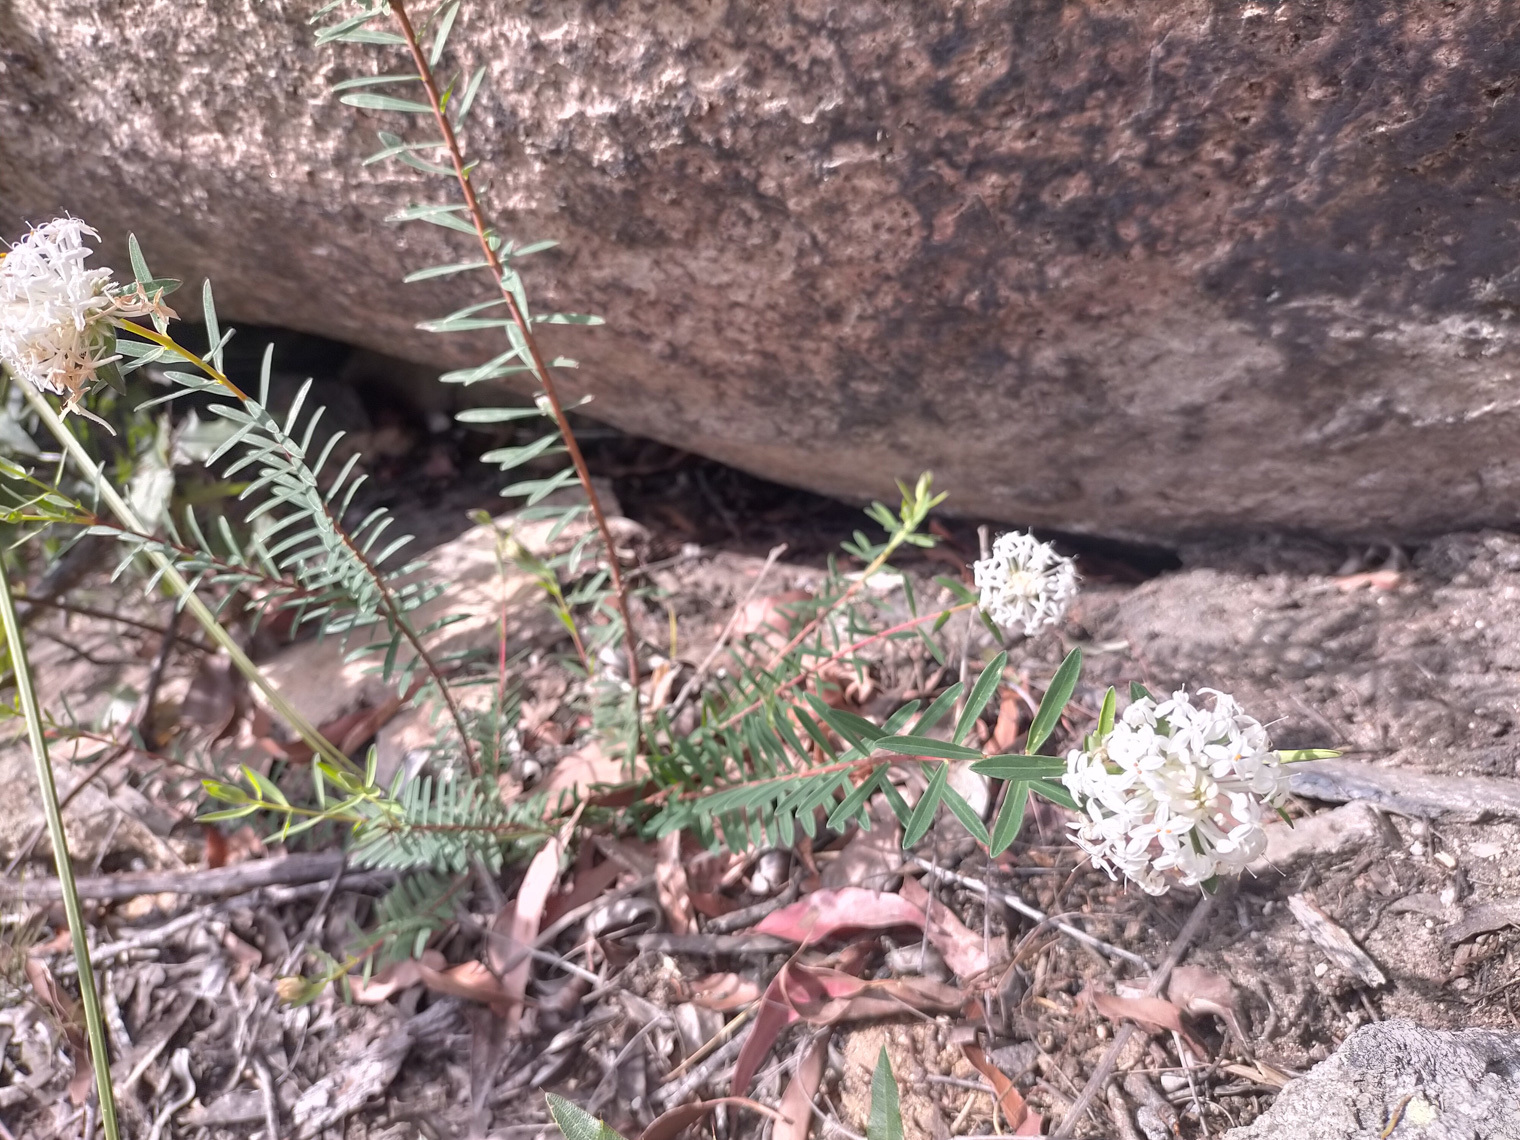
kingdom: Plantae
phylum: Tracheophyta
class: Magnoliopsida
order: Malvales
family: Thymelaeaceae
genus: Pimelea
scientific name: Pimelea linifolia
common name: Queen-of-the-bush
